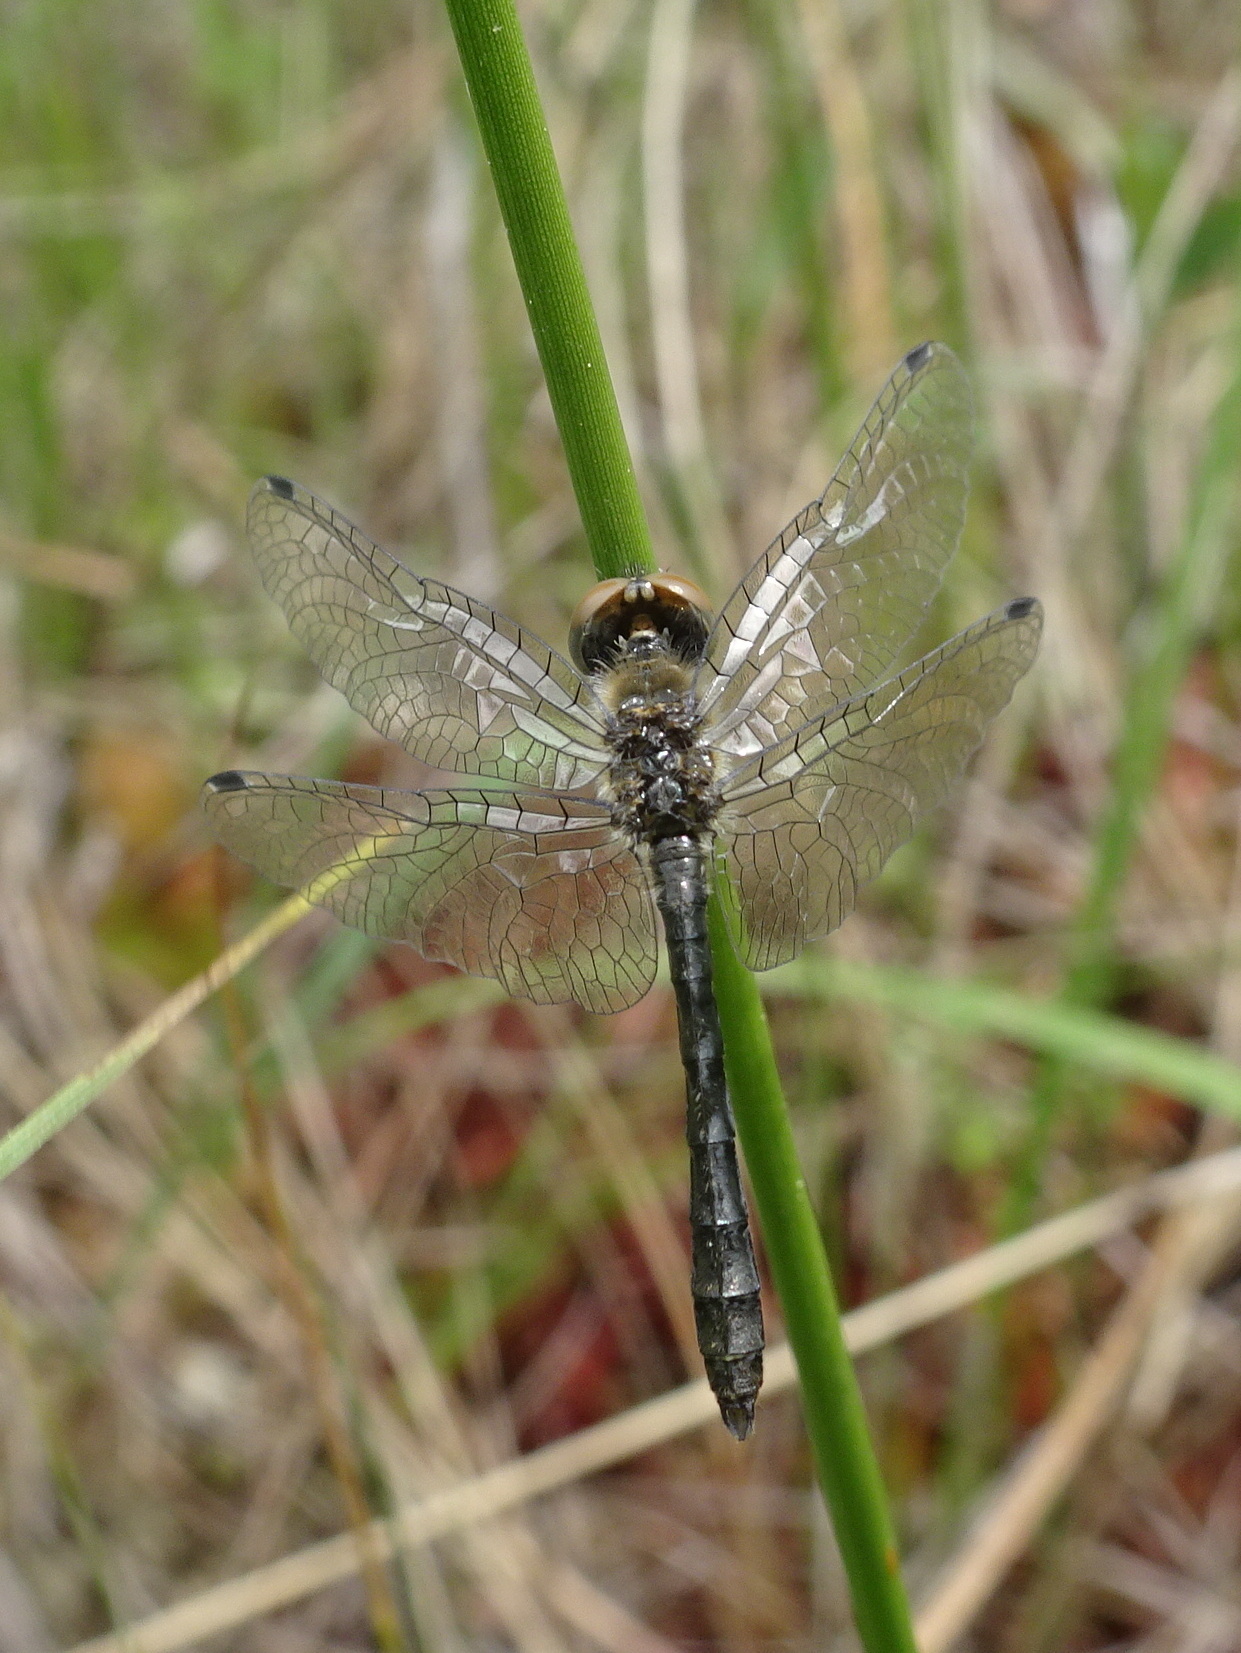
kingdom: Animalia
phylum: Arthropoda
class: Insecta
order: Odonata
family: Libellulidae
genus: Nannothemis
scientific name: Nannothemis bella
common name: Elfin skimmer
